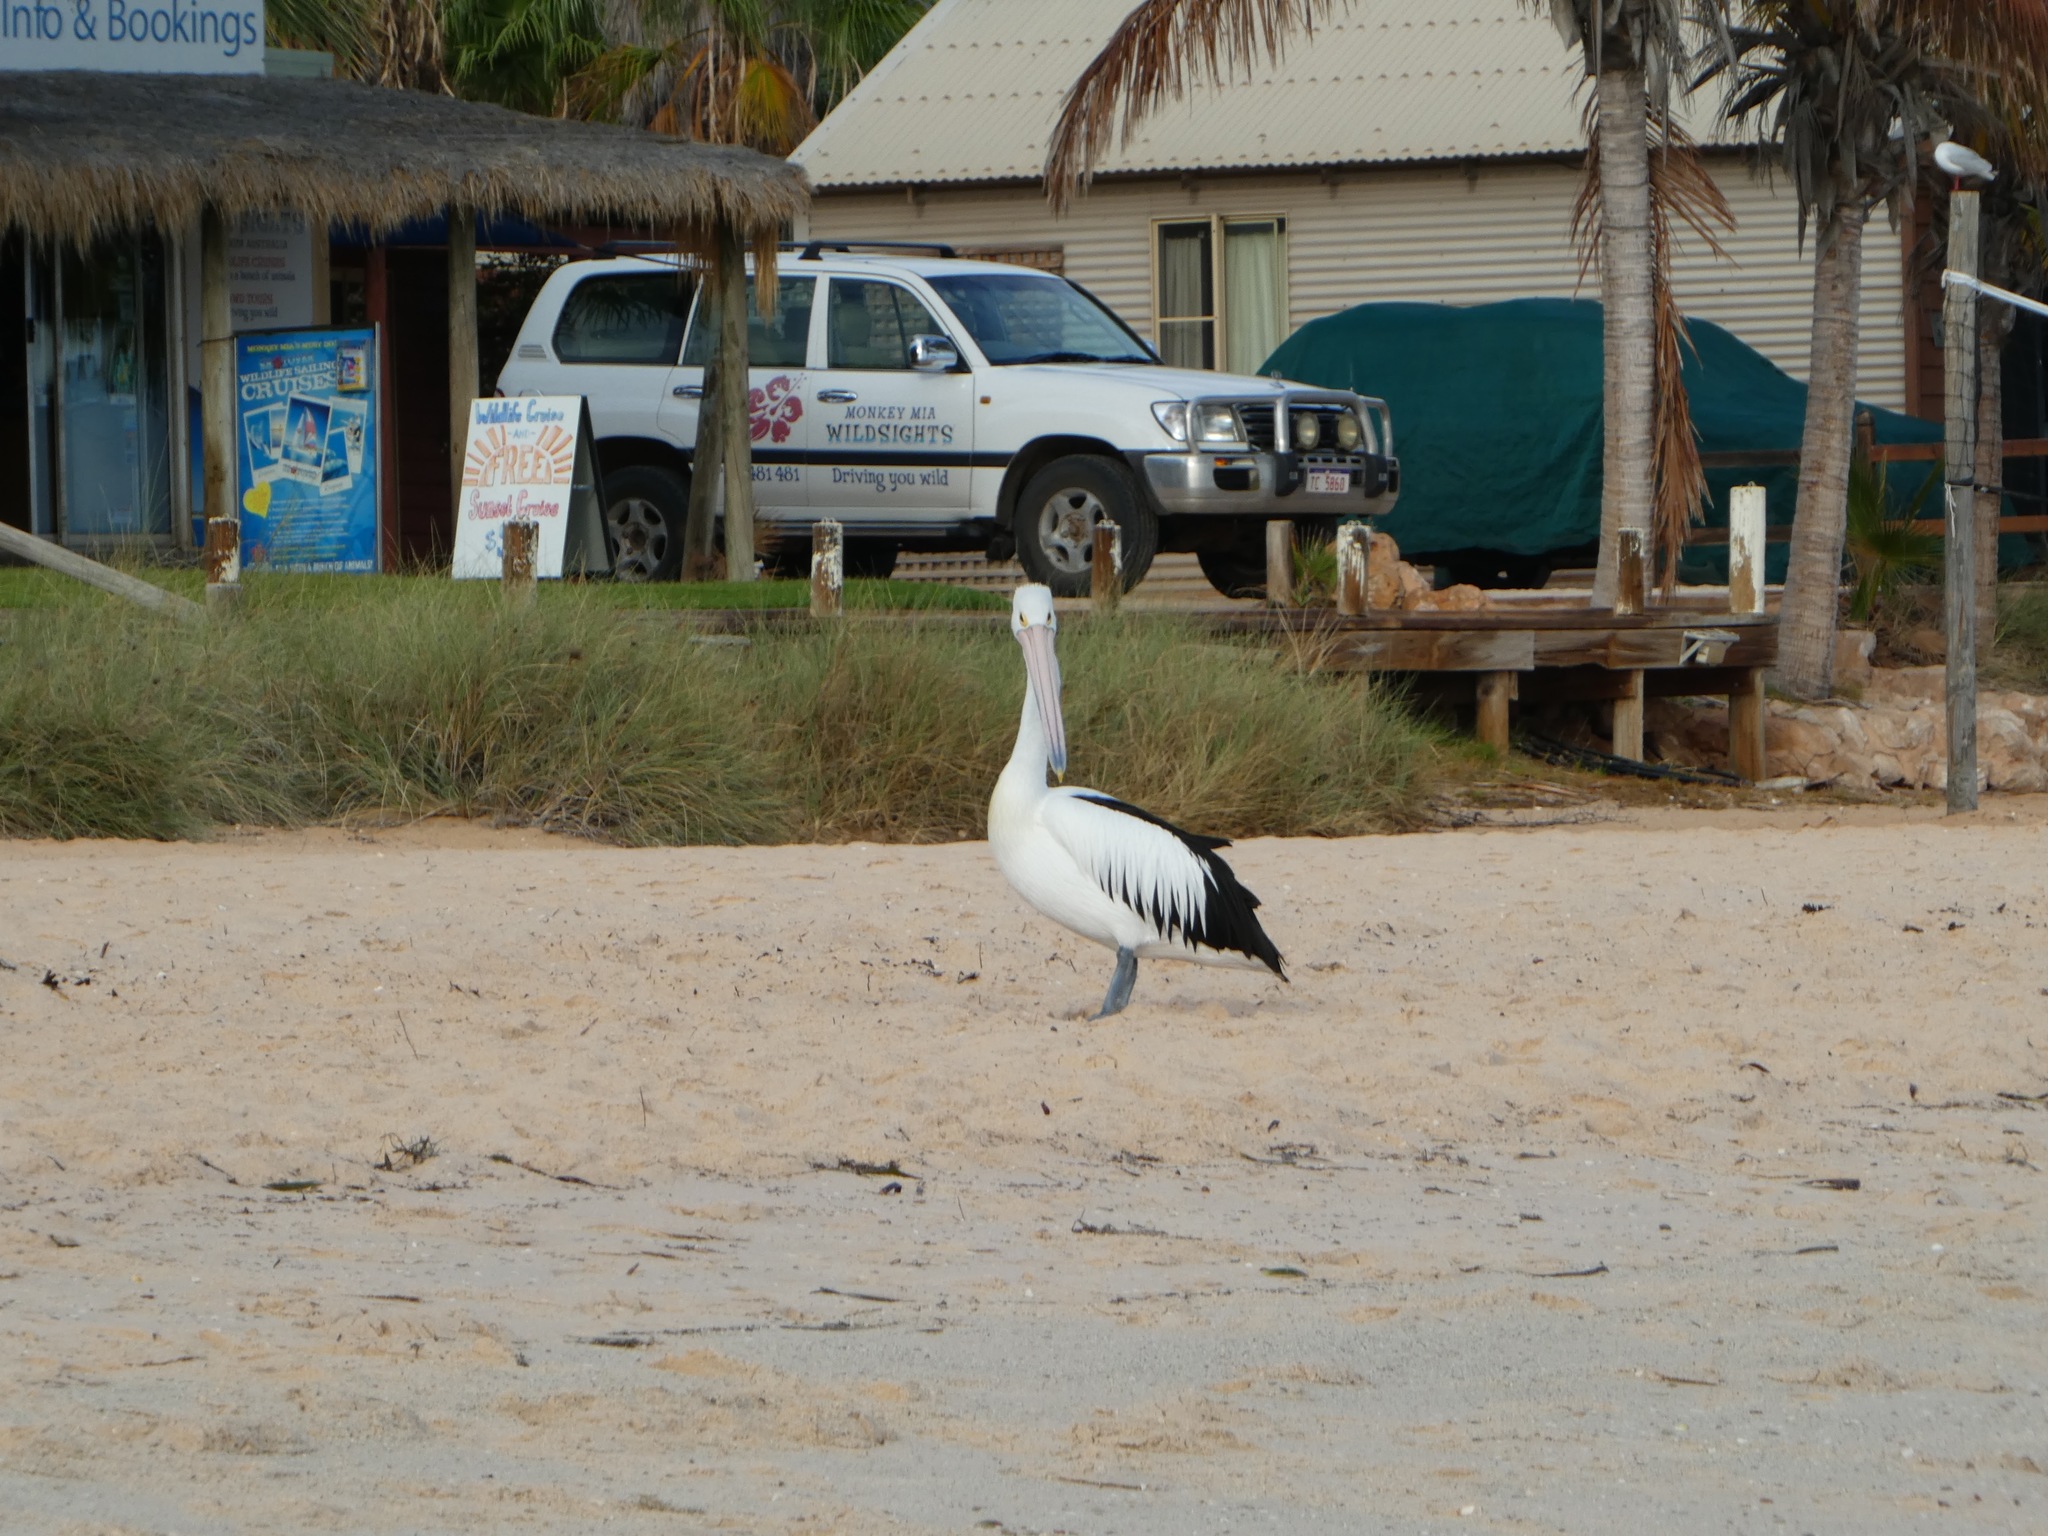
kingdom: Animalia
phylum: Chordata
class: Aves
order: Pelecaniformes
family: Pelecanidae
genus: Pelecanus
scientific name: Pelecanus conspicillatus
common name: Australian pelican
